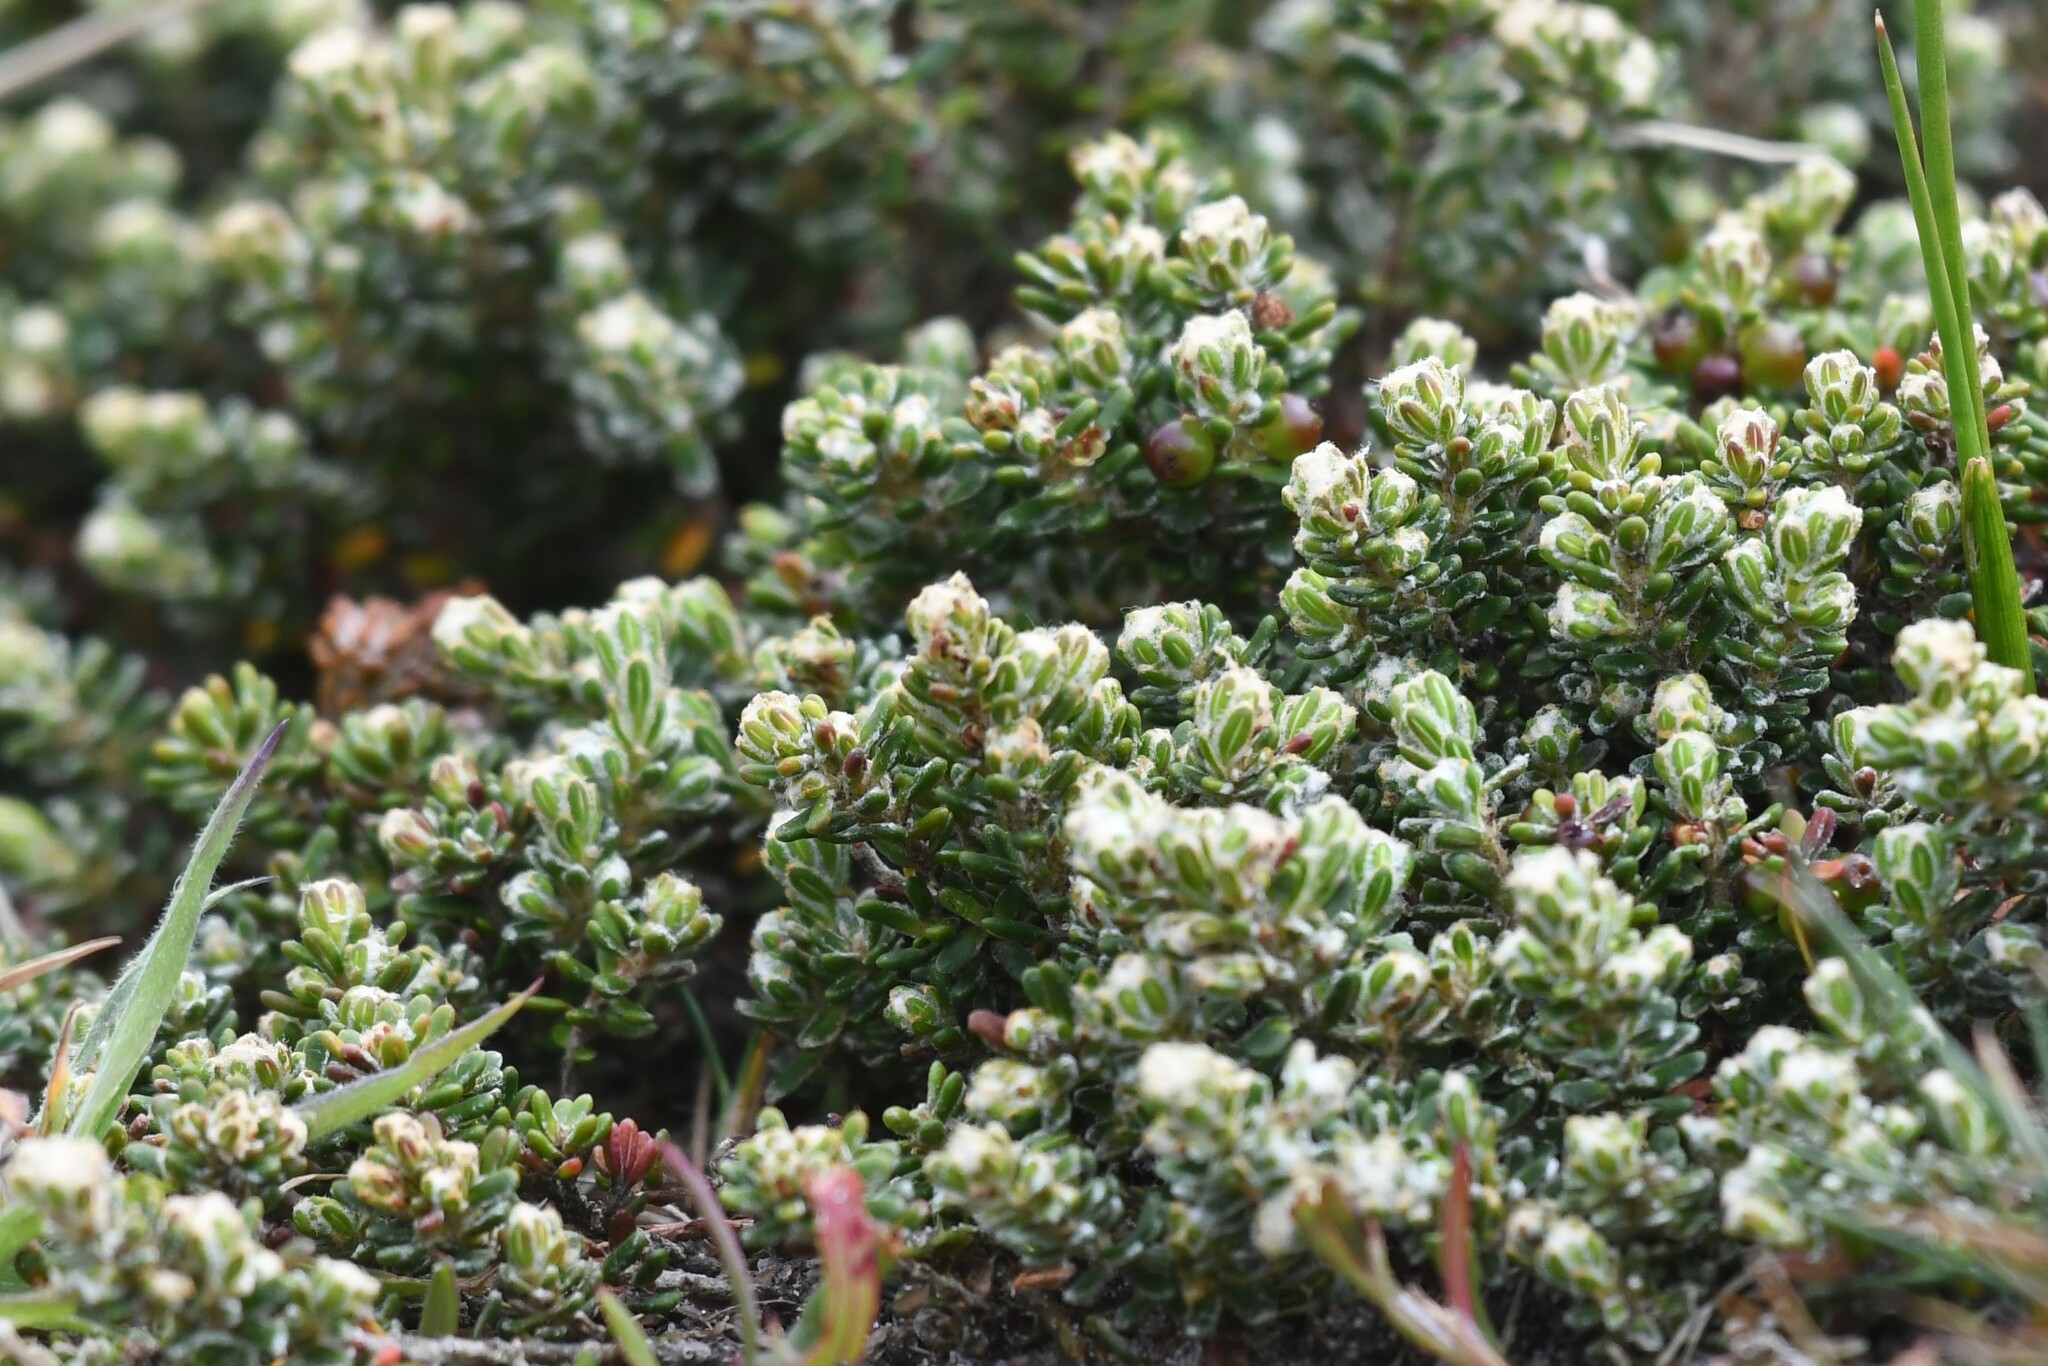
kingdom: Plantae
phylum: Tracheophyta
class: Magnoliopsida
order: Ericales
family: Ericaceae
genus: Empetrum
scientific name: Empetrum rubrum
